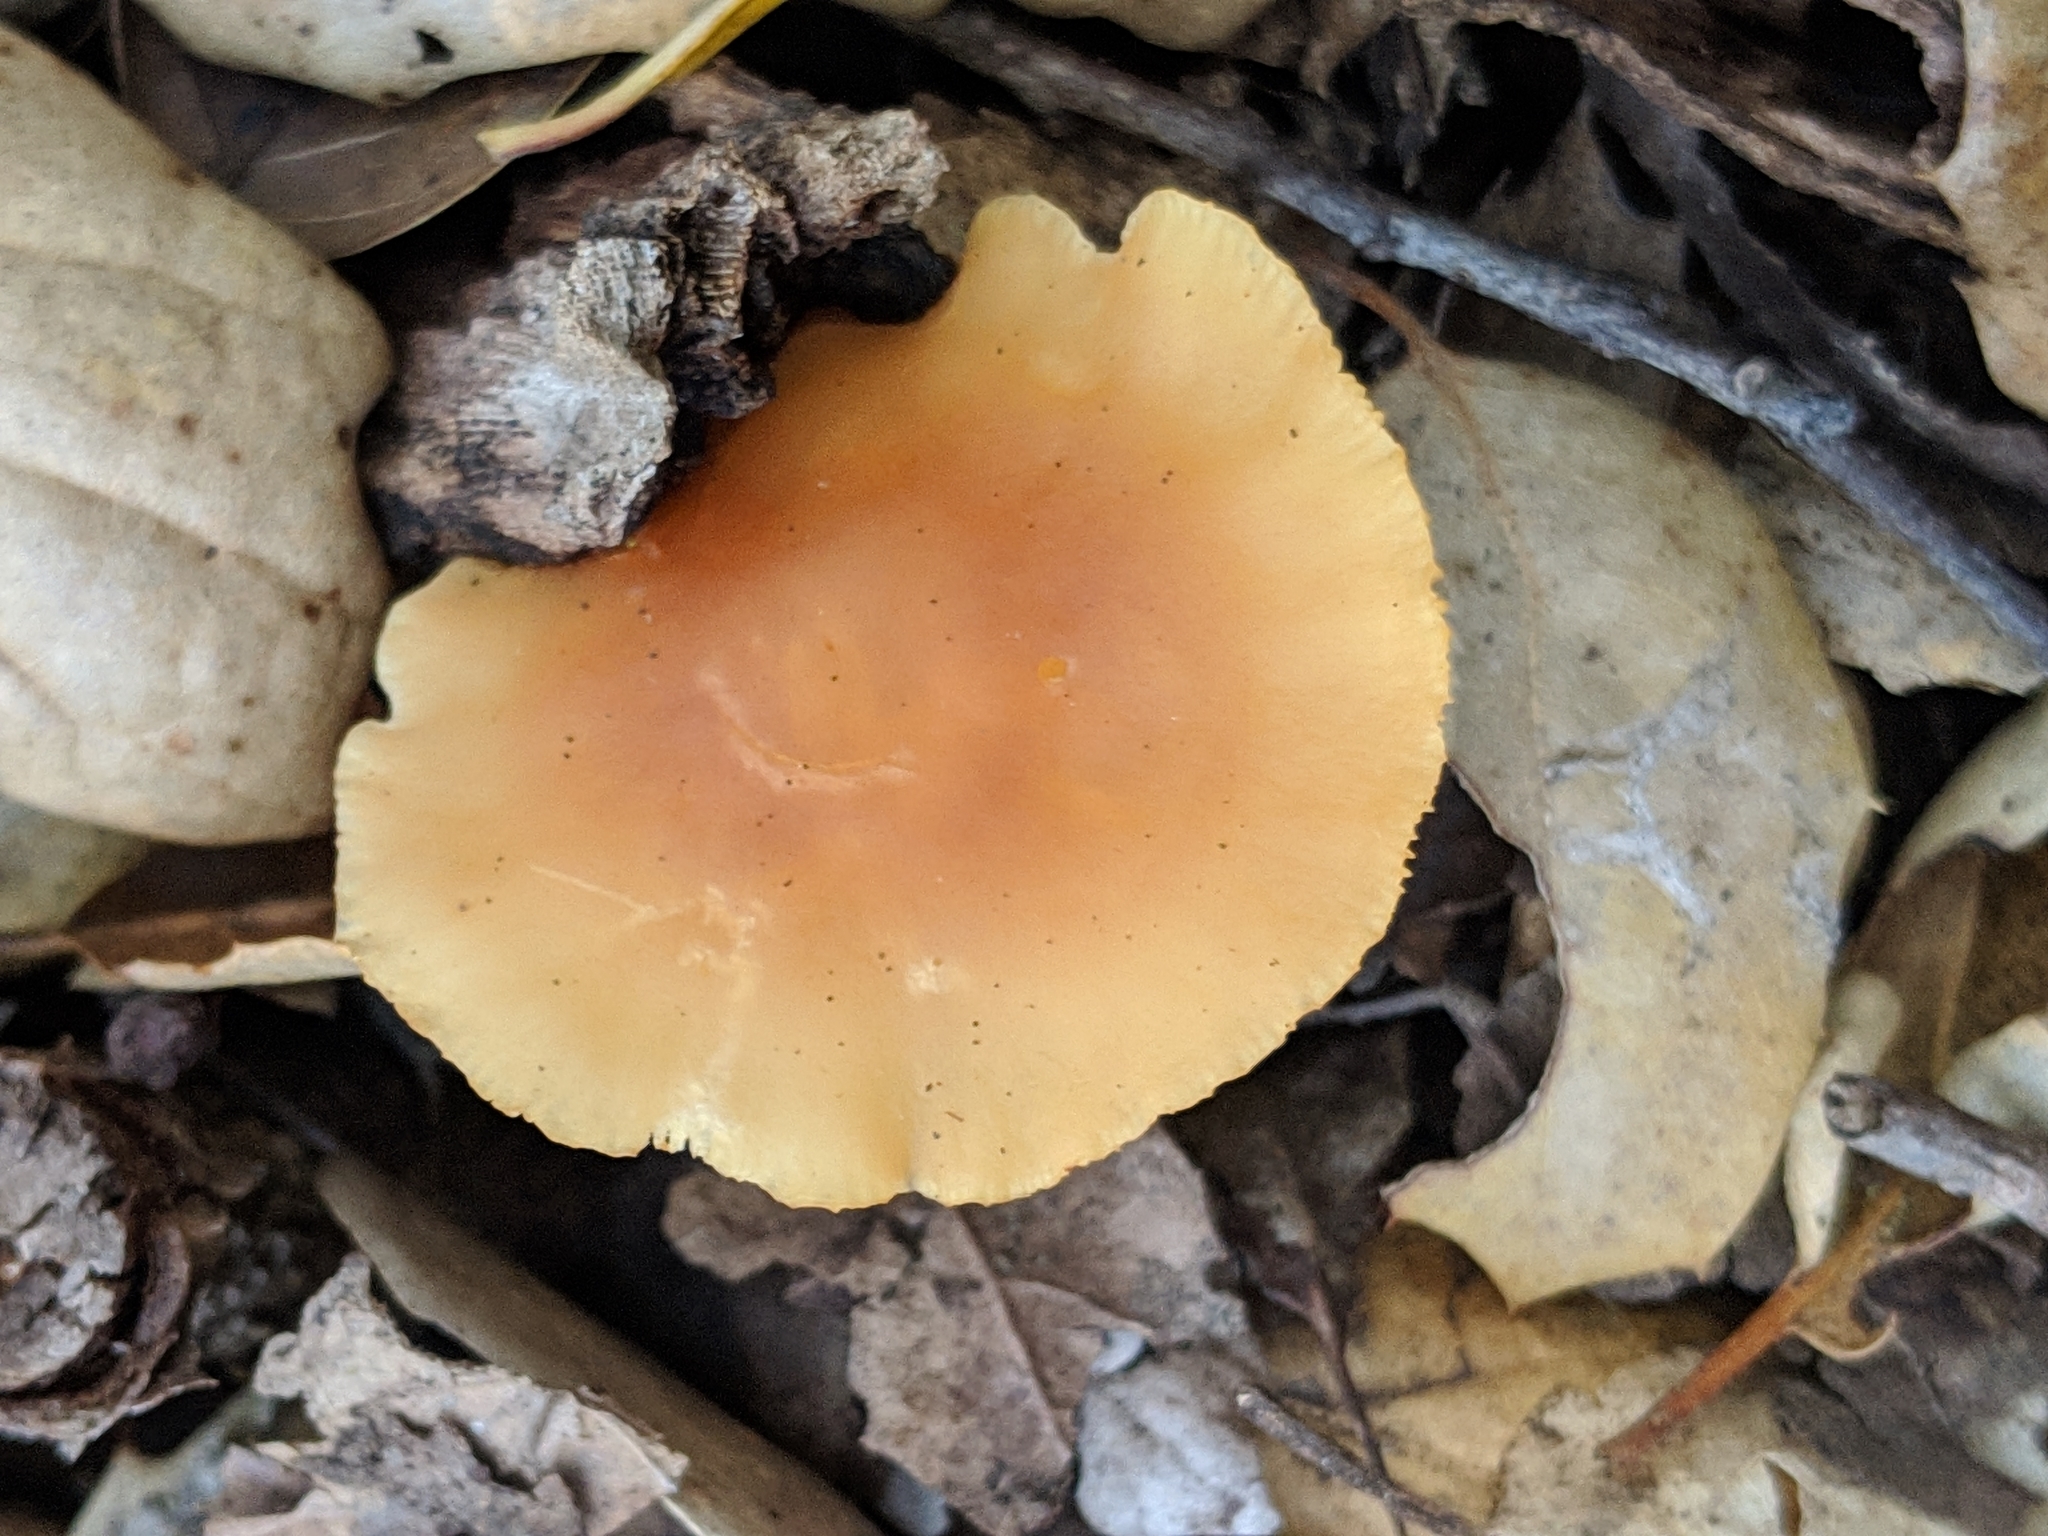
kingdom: Fungi
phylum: Basidiomycota
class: Agaricomycetes
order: Agaricales
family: Omphalotaceae
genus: Gymnopus
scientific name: Gymnopus dryophilus
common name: Penny top
